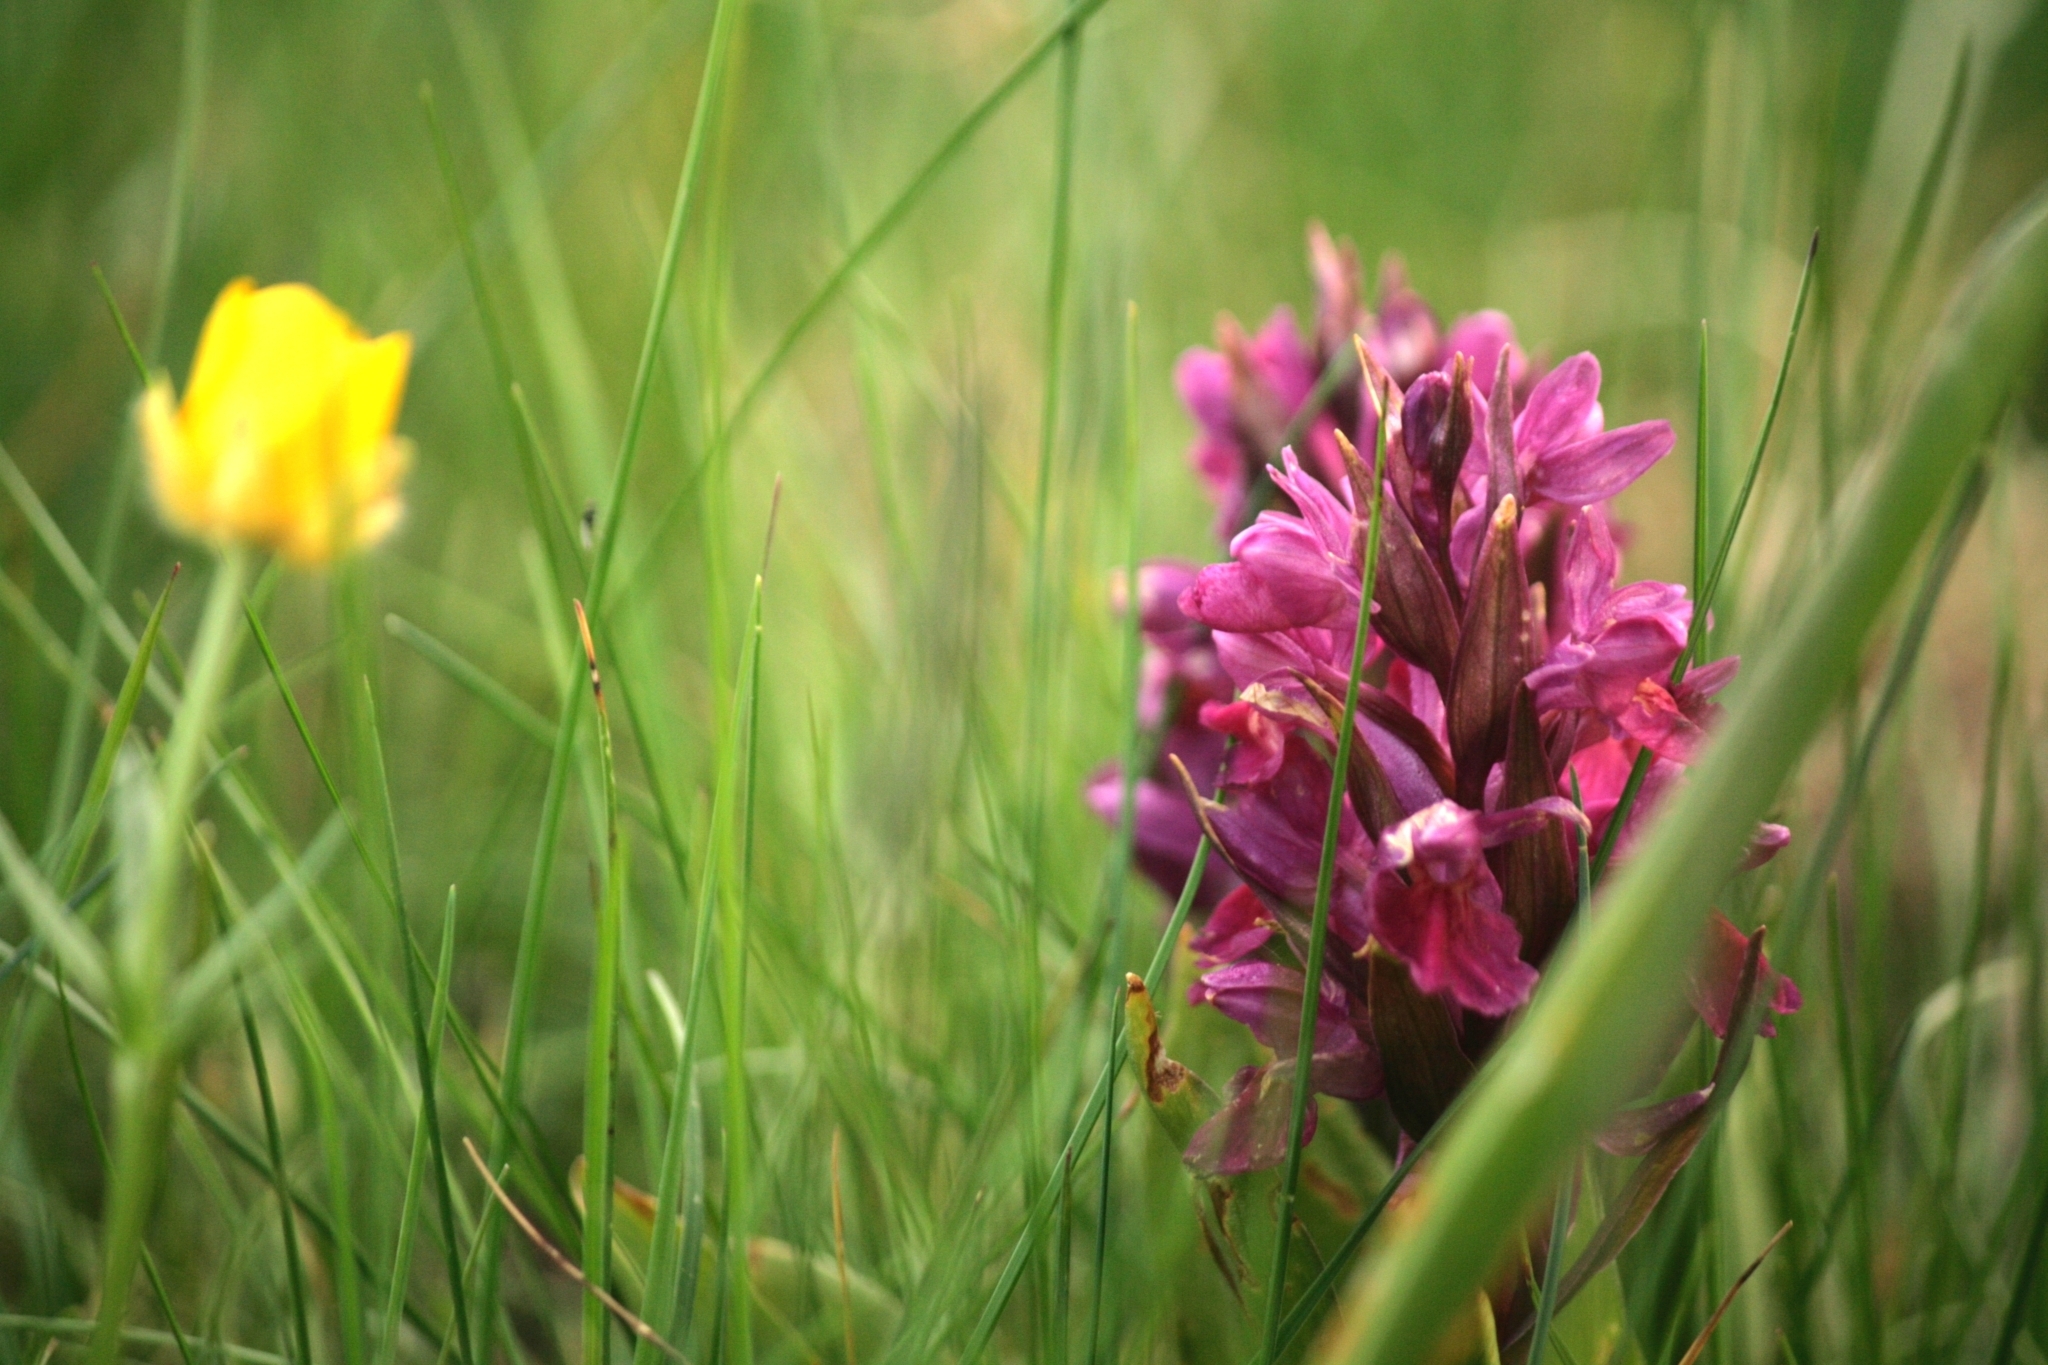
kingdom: Plantae
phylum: Tracheophyta
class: Liliopsida
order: Asparagales
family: Orchidaceae
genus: Dactylorhiza
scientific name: Dactylorhiza sambucina
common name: Elder-flowered orchid
